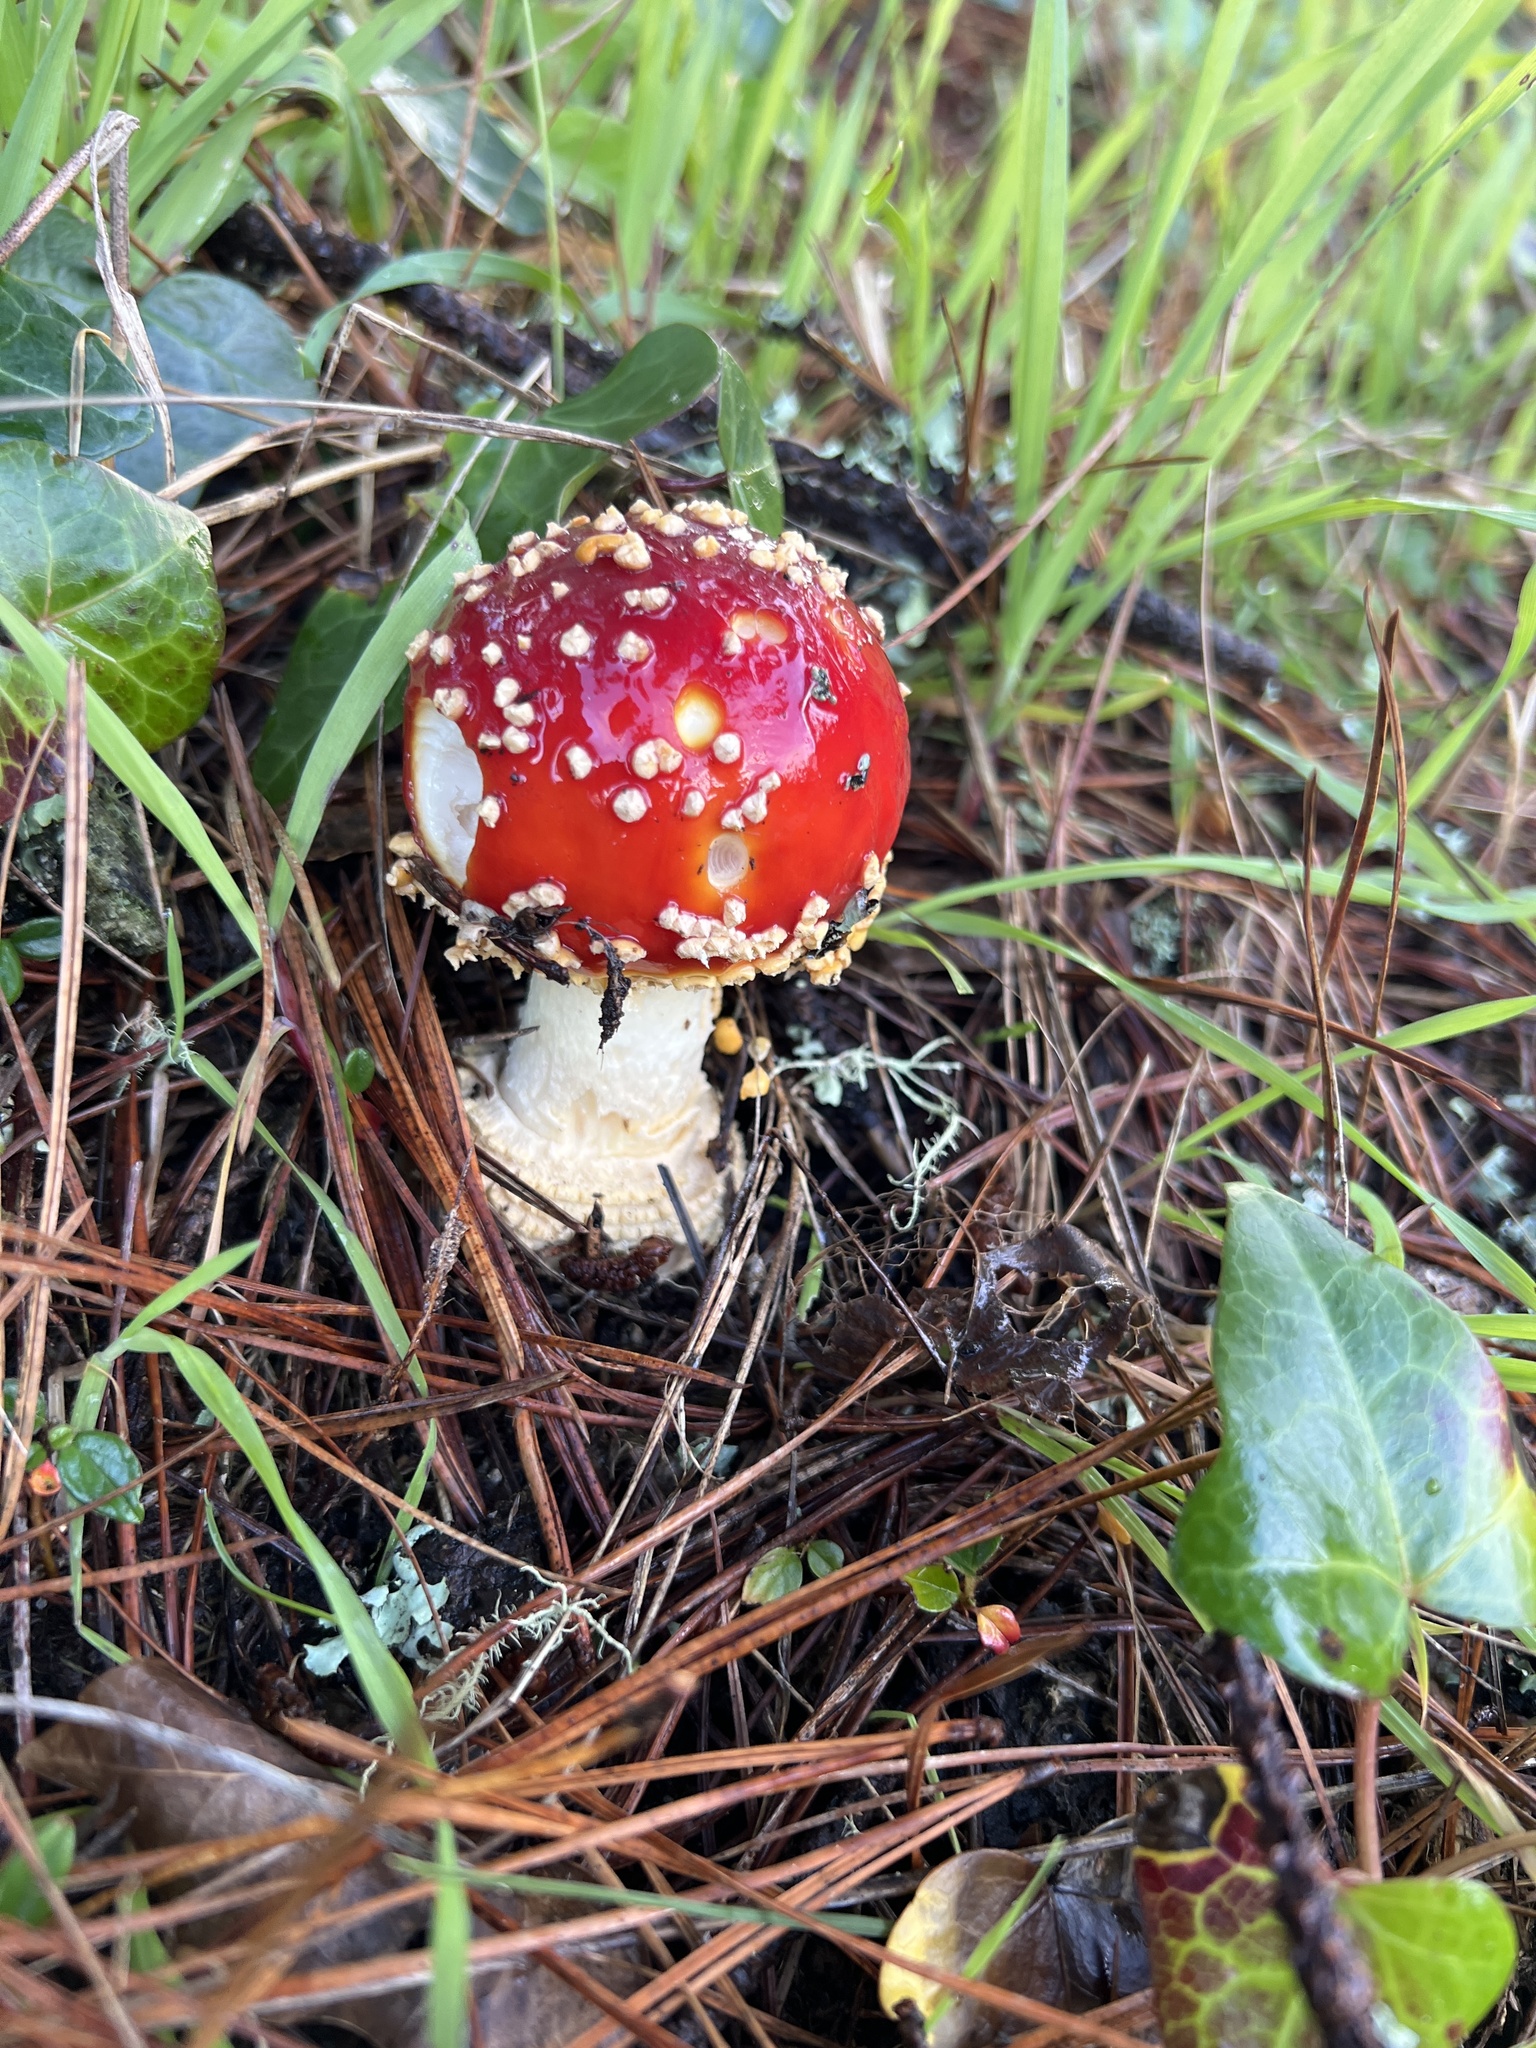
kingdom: Fungi
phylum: Basidiomycota
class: Agaricomycetes
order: Agaricales
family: Amanitaceae
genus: Amanita
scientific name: Amanita muscaria
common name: Fly agaric
